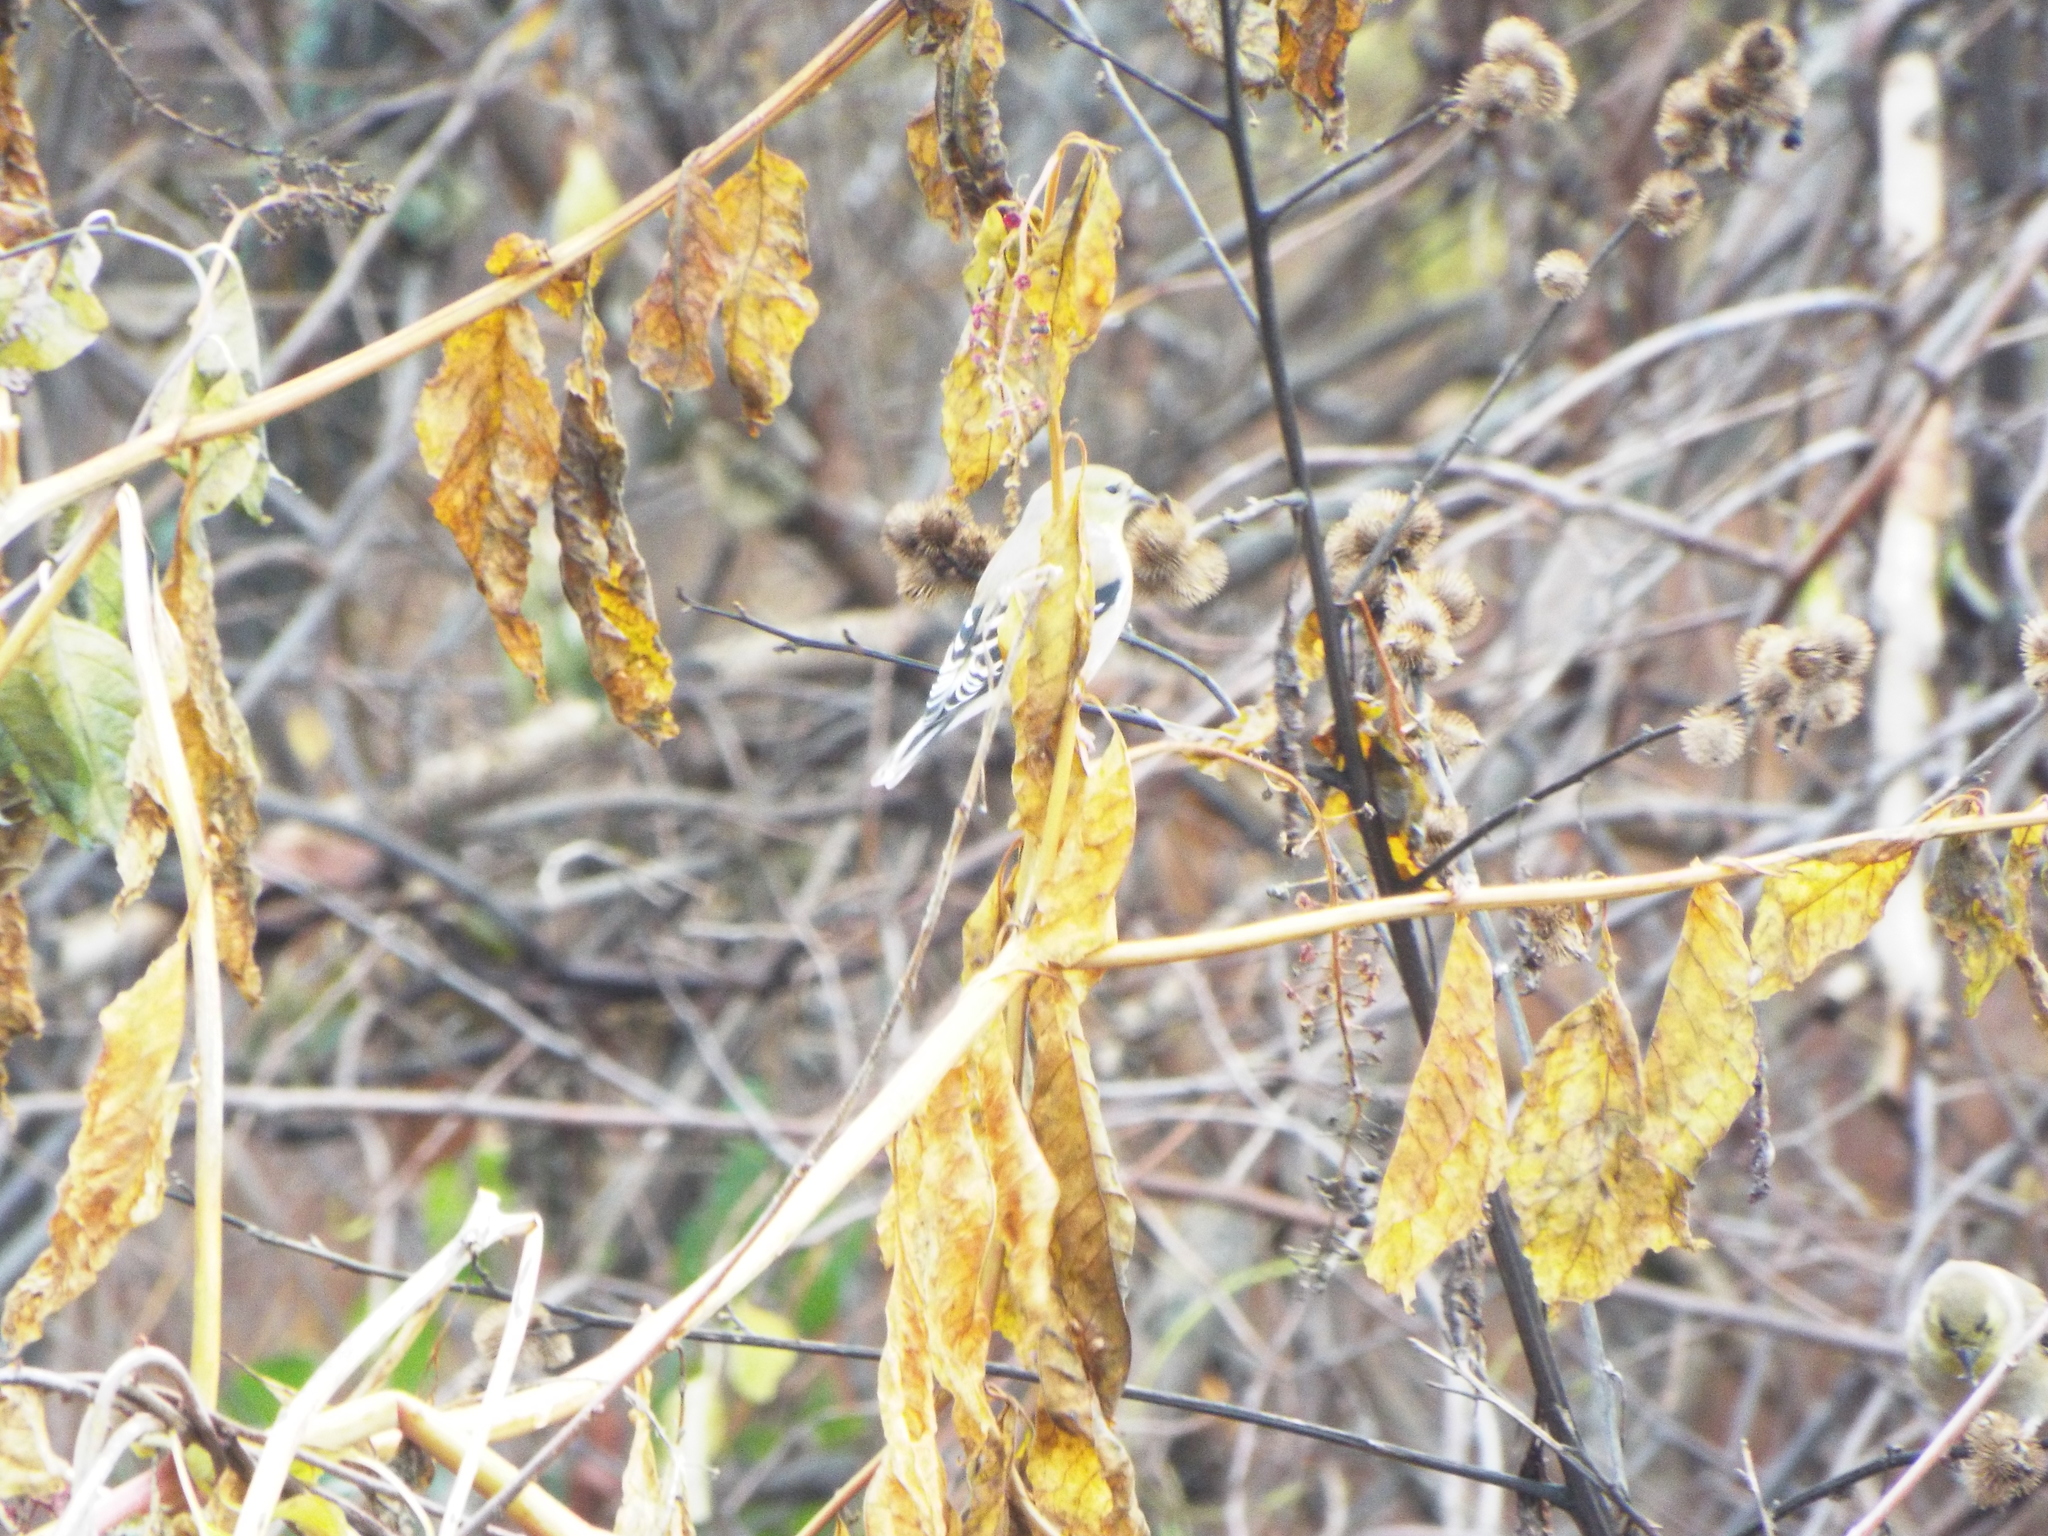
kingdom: Animalia
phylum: Chordata
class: Aves
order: Passeriformes
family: Fringillidae
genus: Spinus
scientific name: Spinus tristis
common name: American goldfinch
